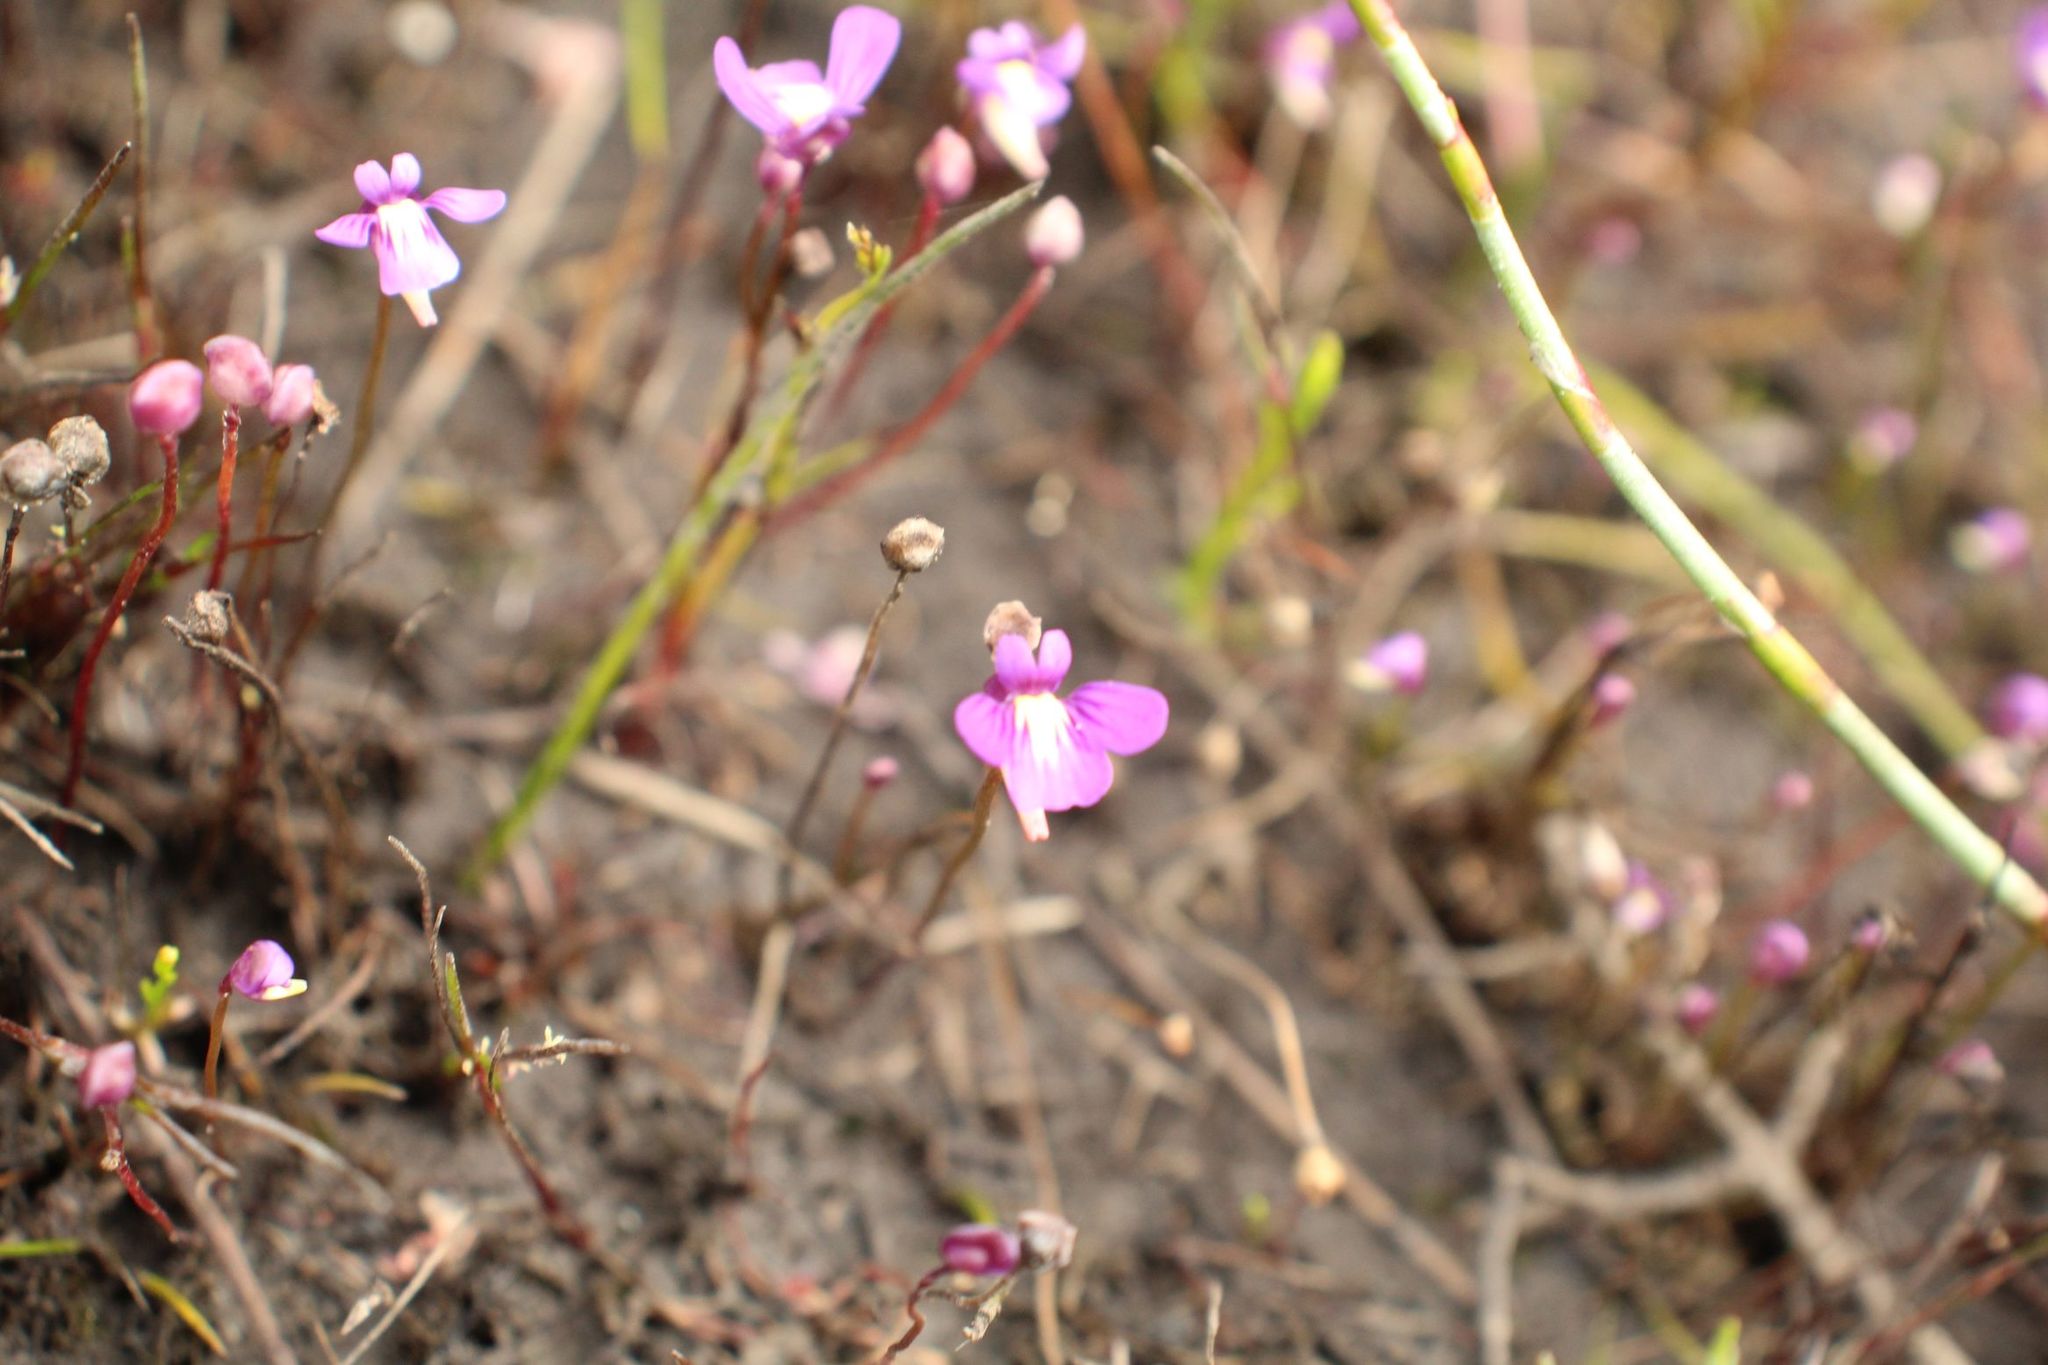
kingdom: Plantae
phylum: Tracheophyta
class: Magnoliopsida
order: Lamiales
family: Lentibulariaceae
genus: Utricularia
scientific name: Utricularia violacea
